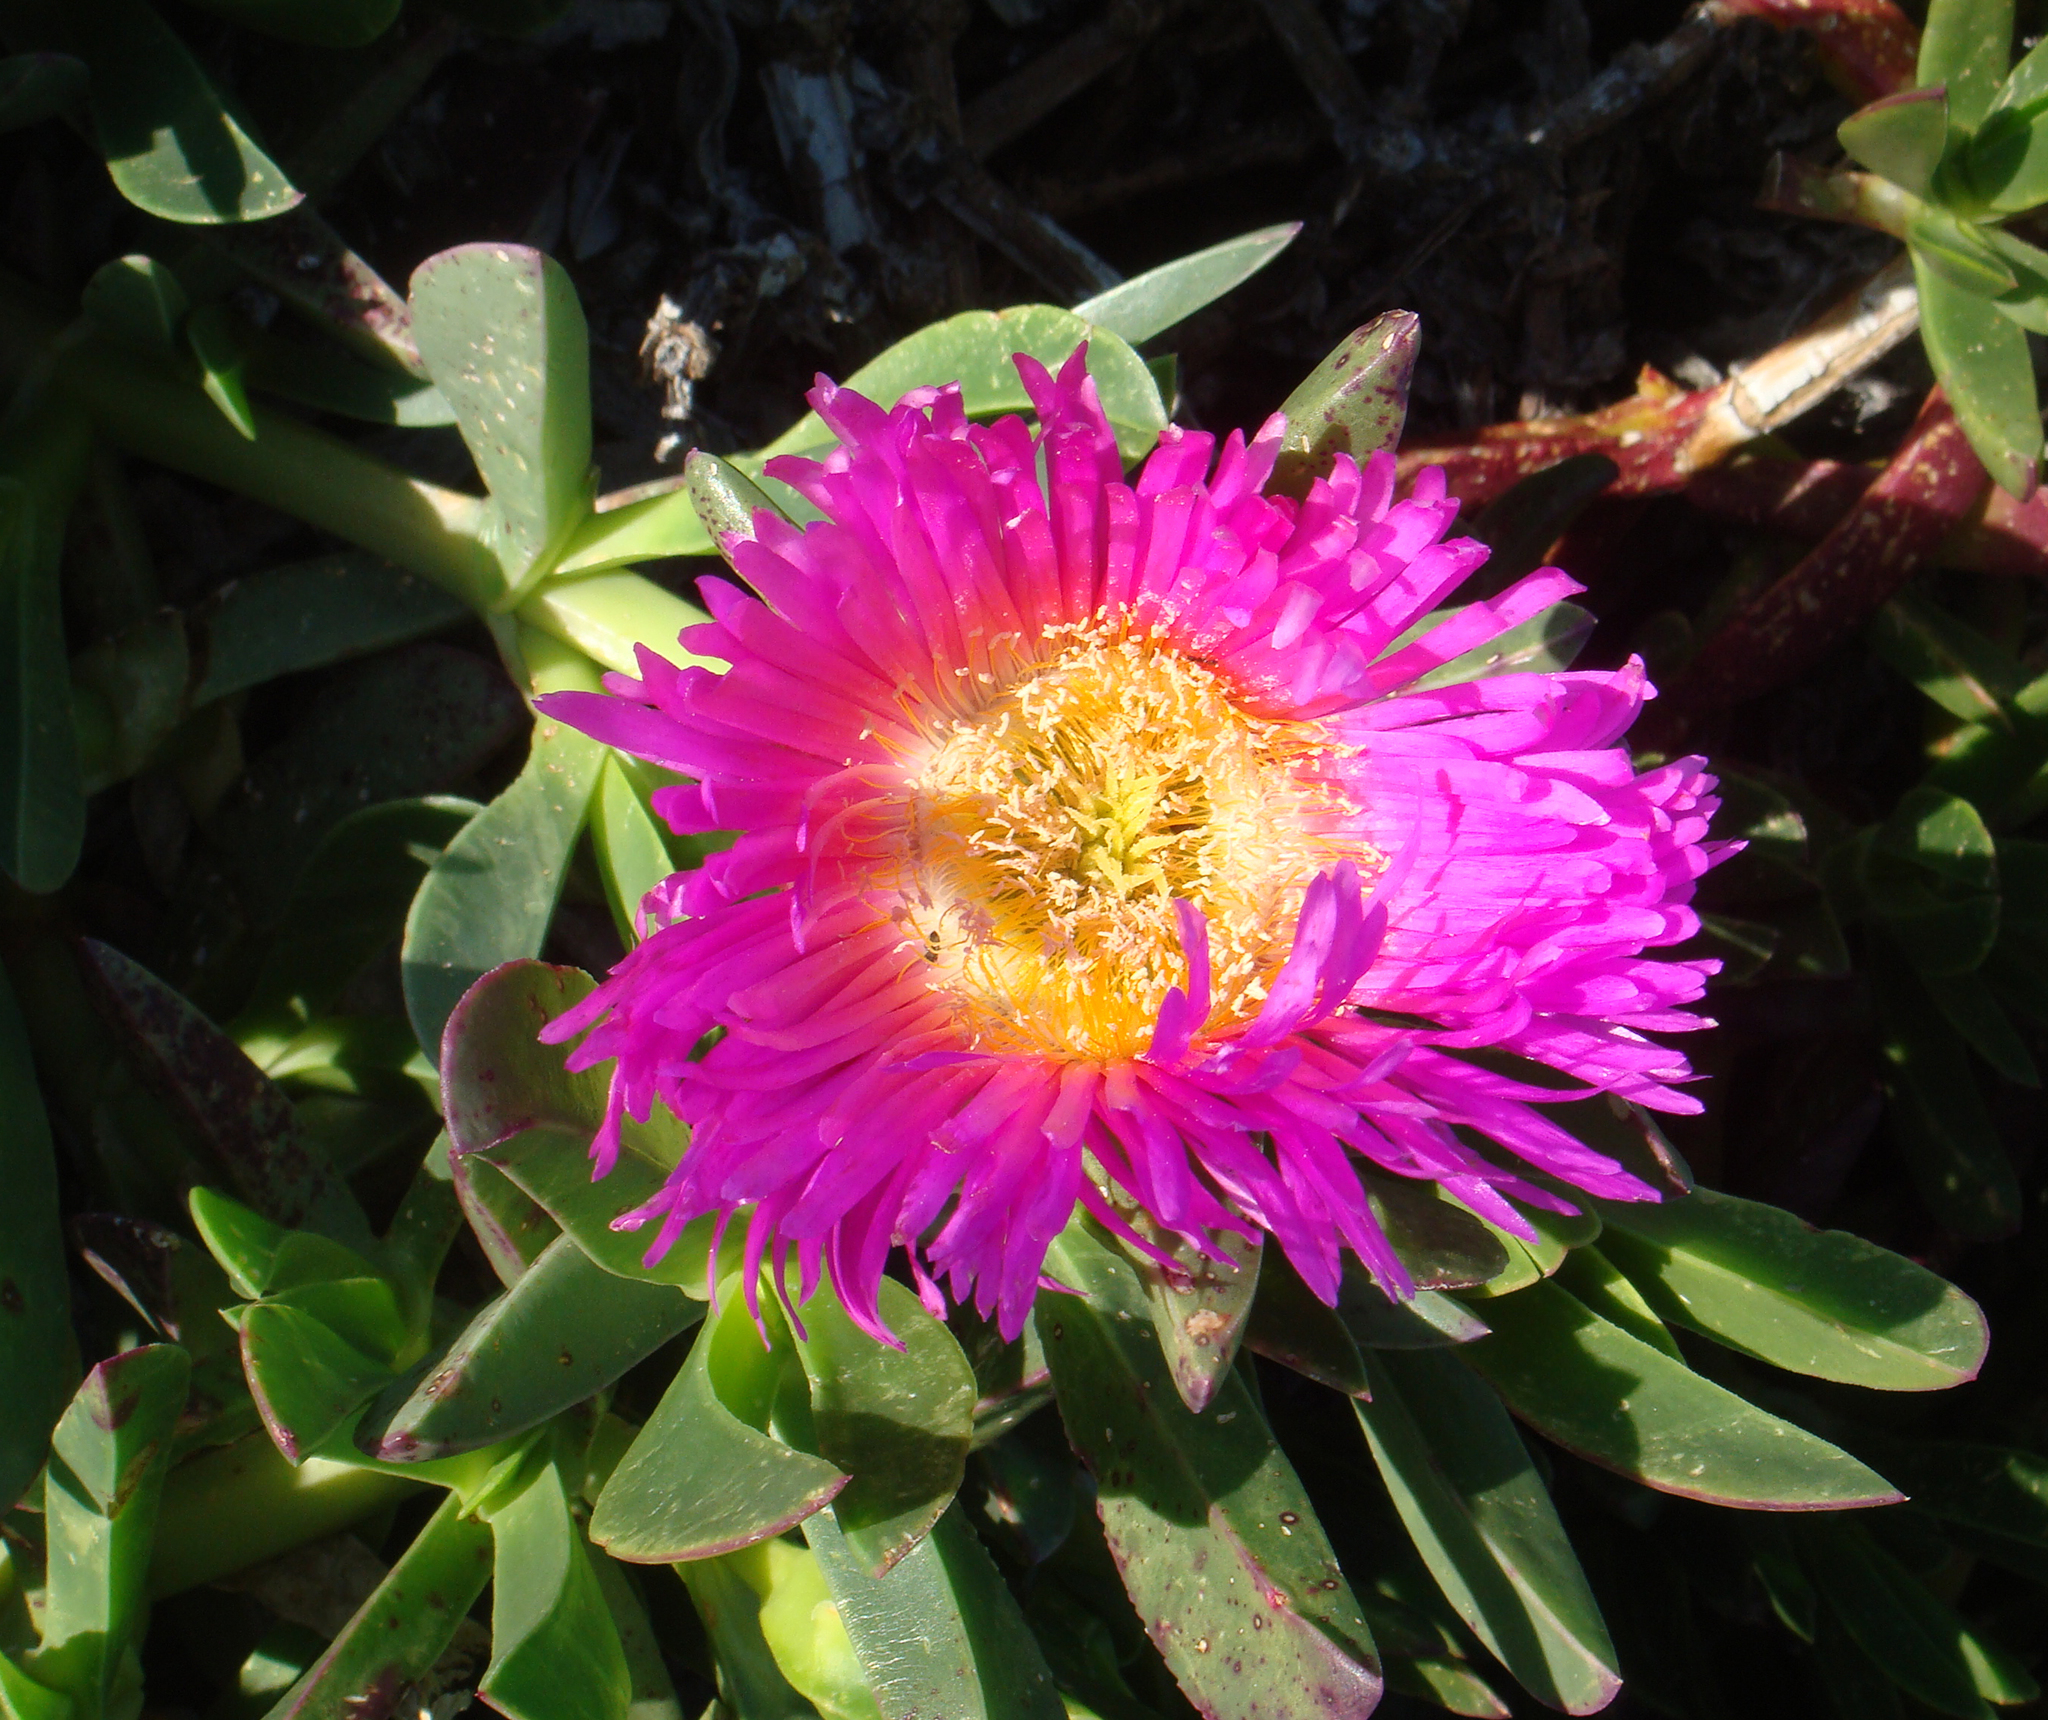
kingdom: Plantae
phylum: Tracheophyta
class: Magnoliopsida
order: Caryophyllales
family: Aizoaceae
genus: Carpobrotus
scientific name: Carpobrotus acinaciformis
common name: Sally-my-handsome
